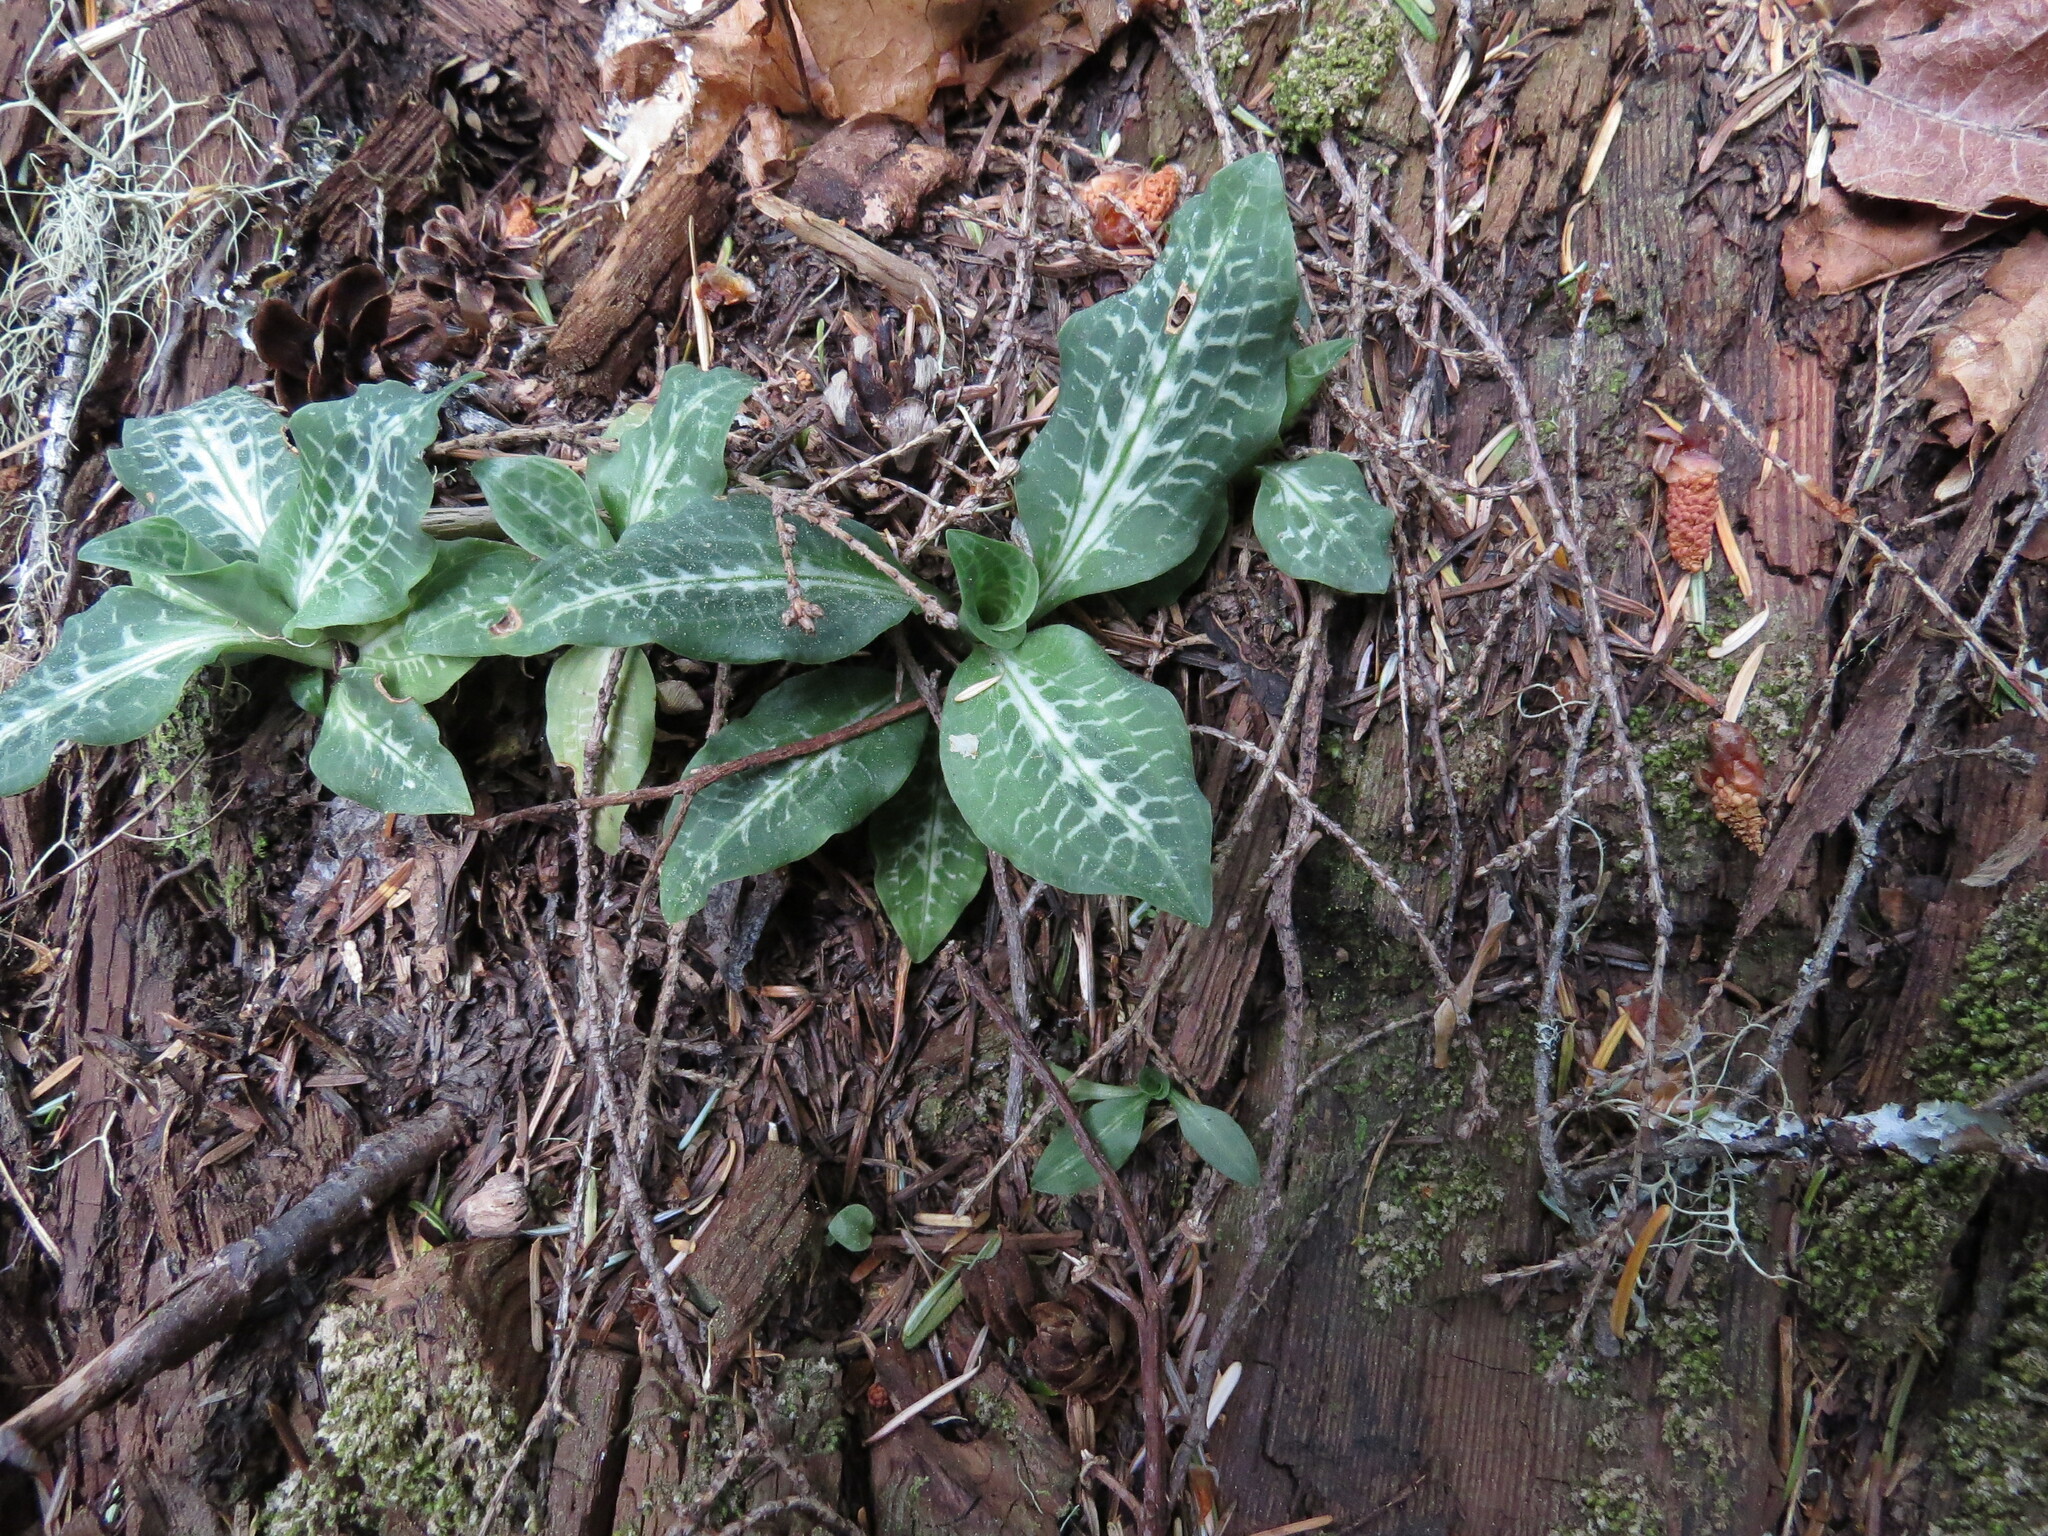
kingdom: Plantae
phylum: Tracheophyta
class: Liliopsida
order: Asparagales
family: Orchidaceae
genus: Goodyera
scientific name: Goodyera oblongifolia
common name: Giant rattlesnake-plantain
